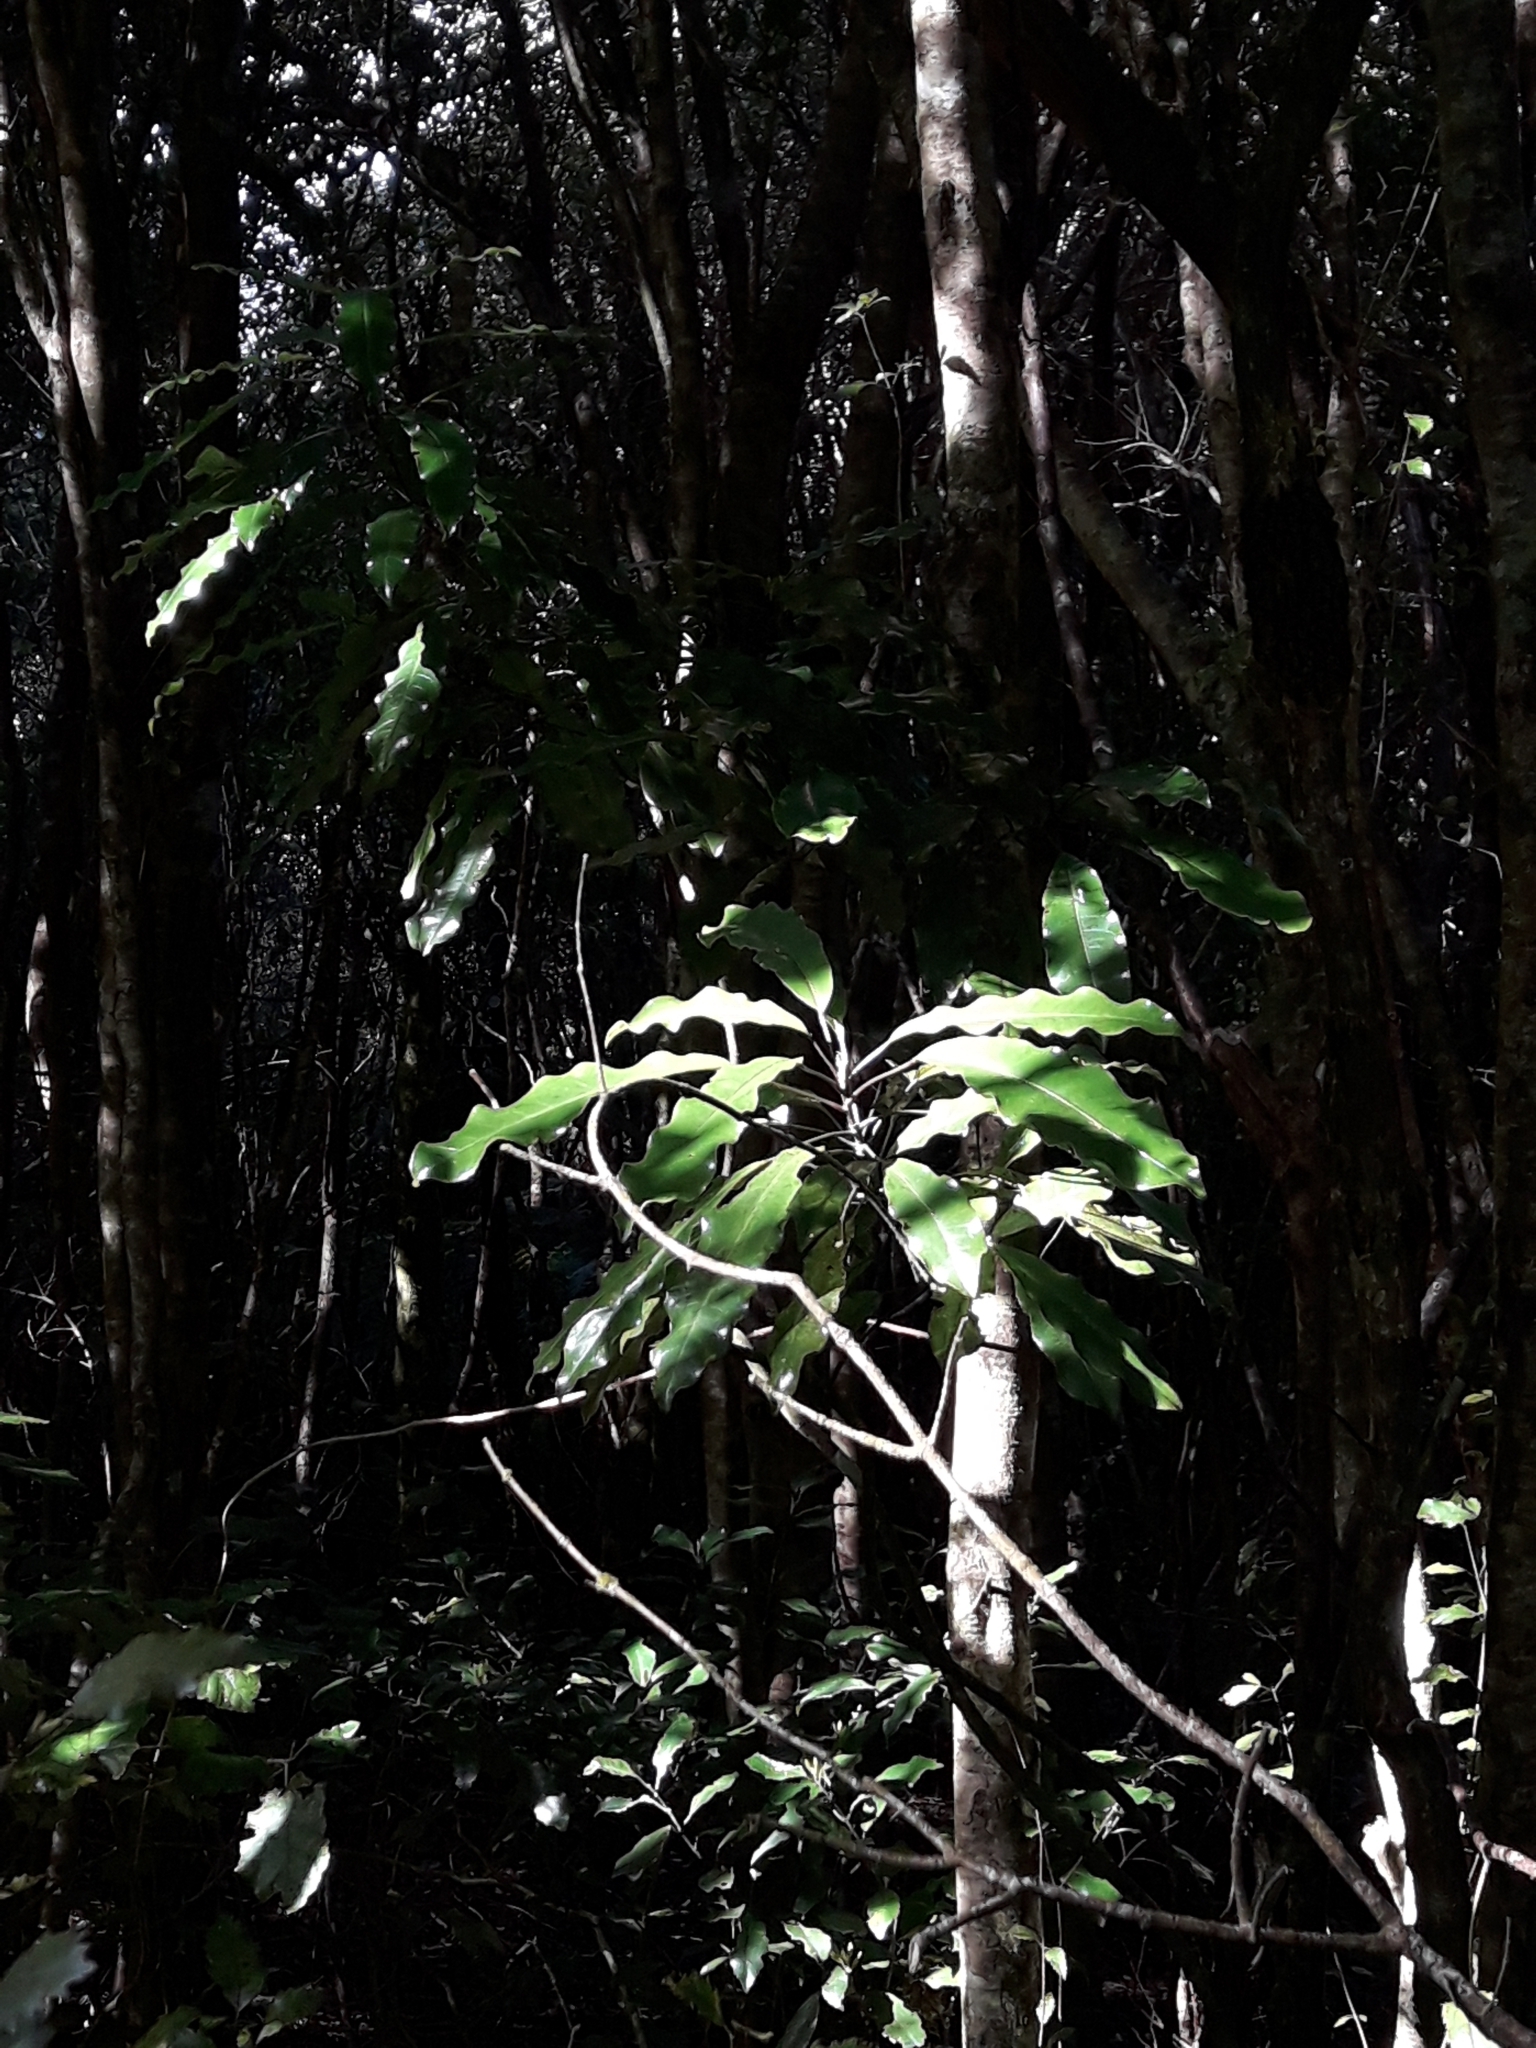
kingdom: Plantae
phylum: Tracheophyta
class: Magnoliopsida
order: Apiales
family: Araliaceae
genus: Raukaua
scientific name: Raukaua edgerleyi
